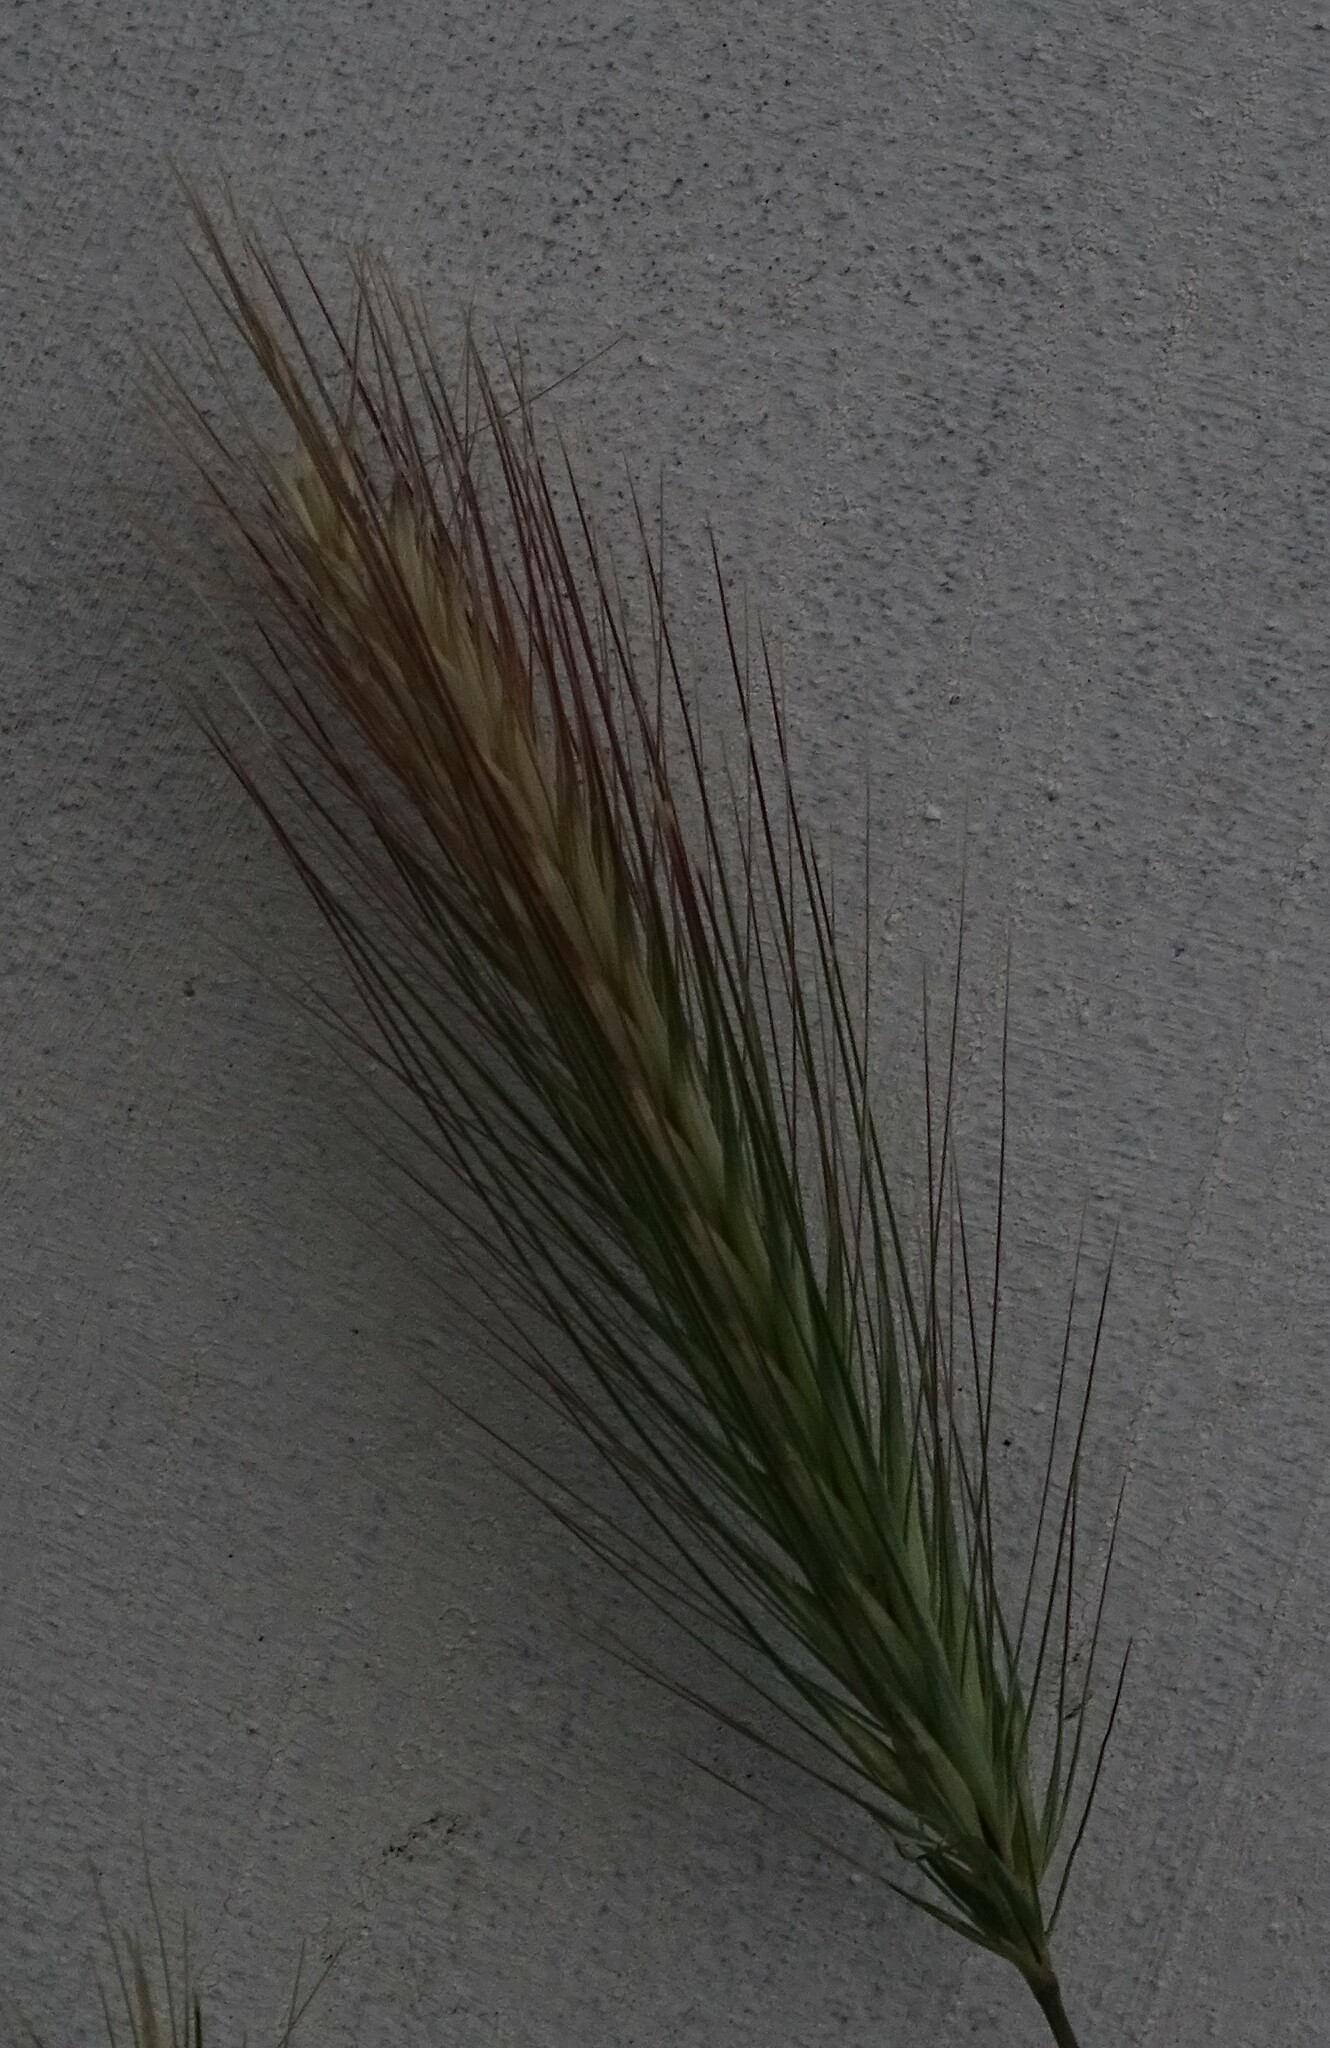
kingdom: Plantae
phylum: Tracheophyta
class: Liliopsida
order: Poales
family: Poaceae
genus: Hordeum
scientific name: Hordeum murinum
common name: Wall barley
